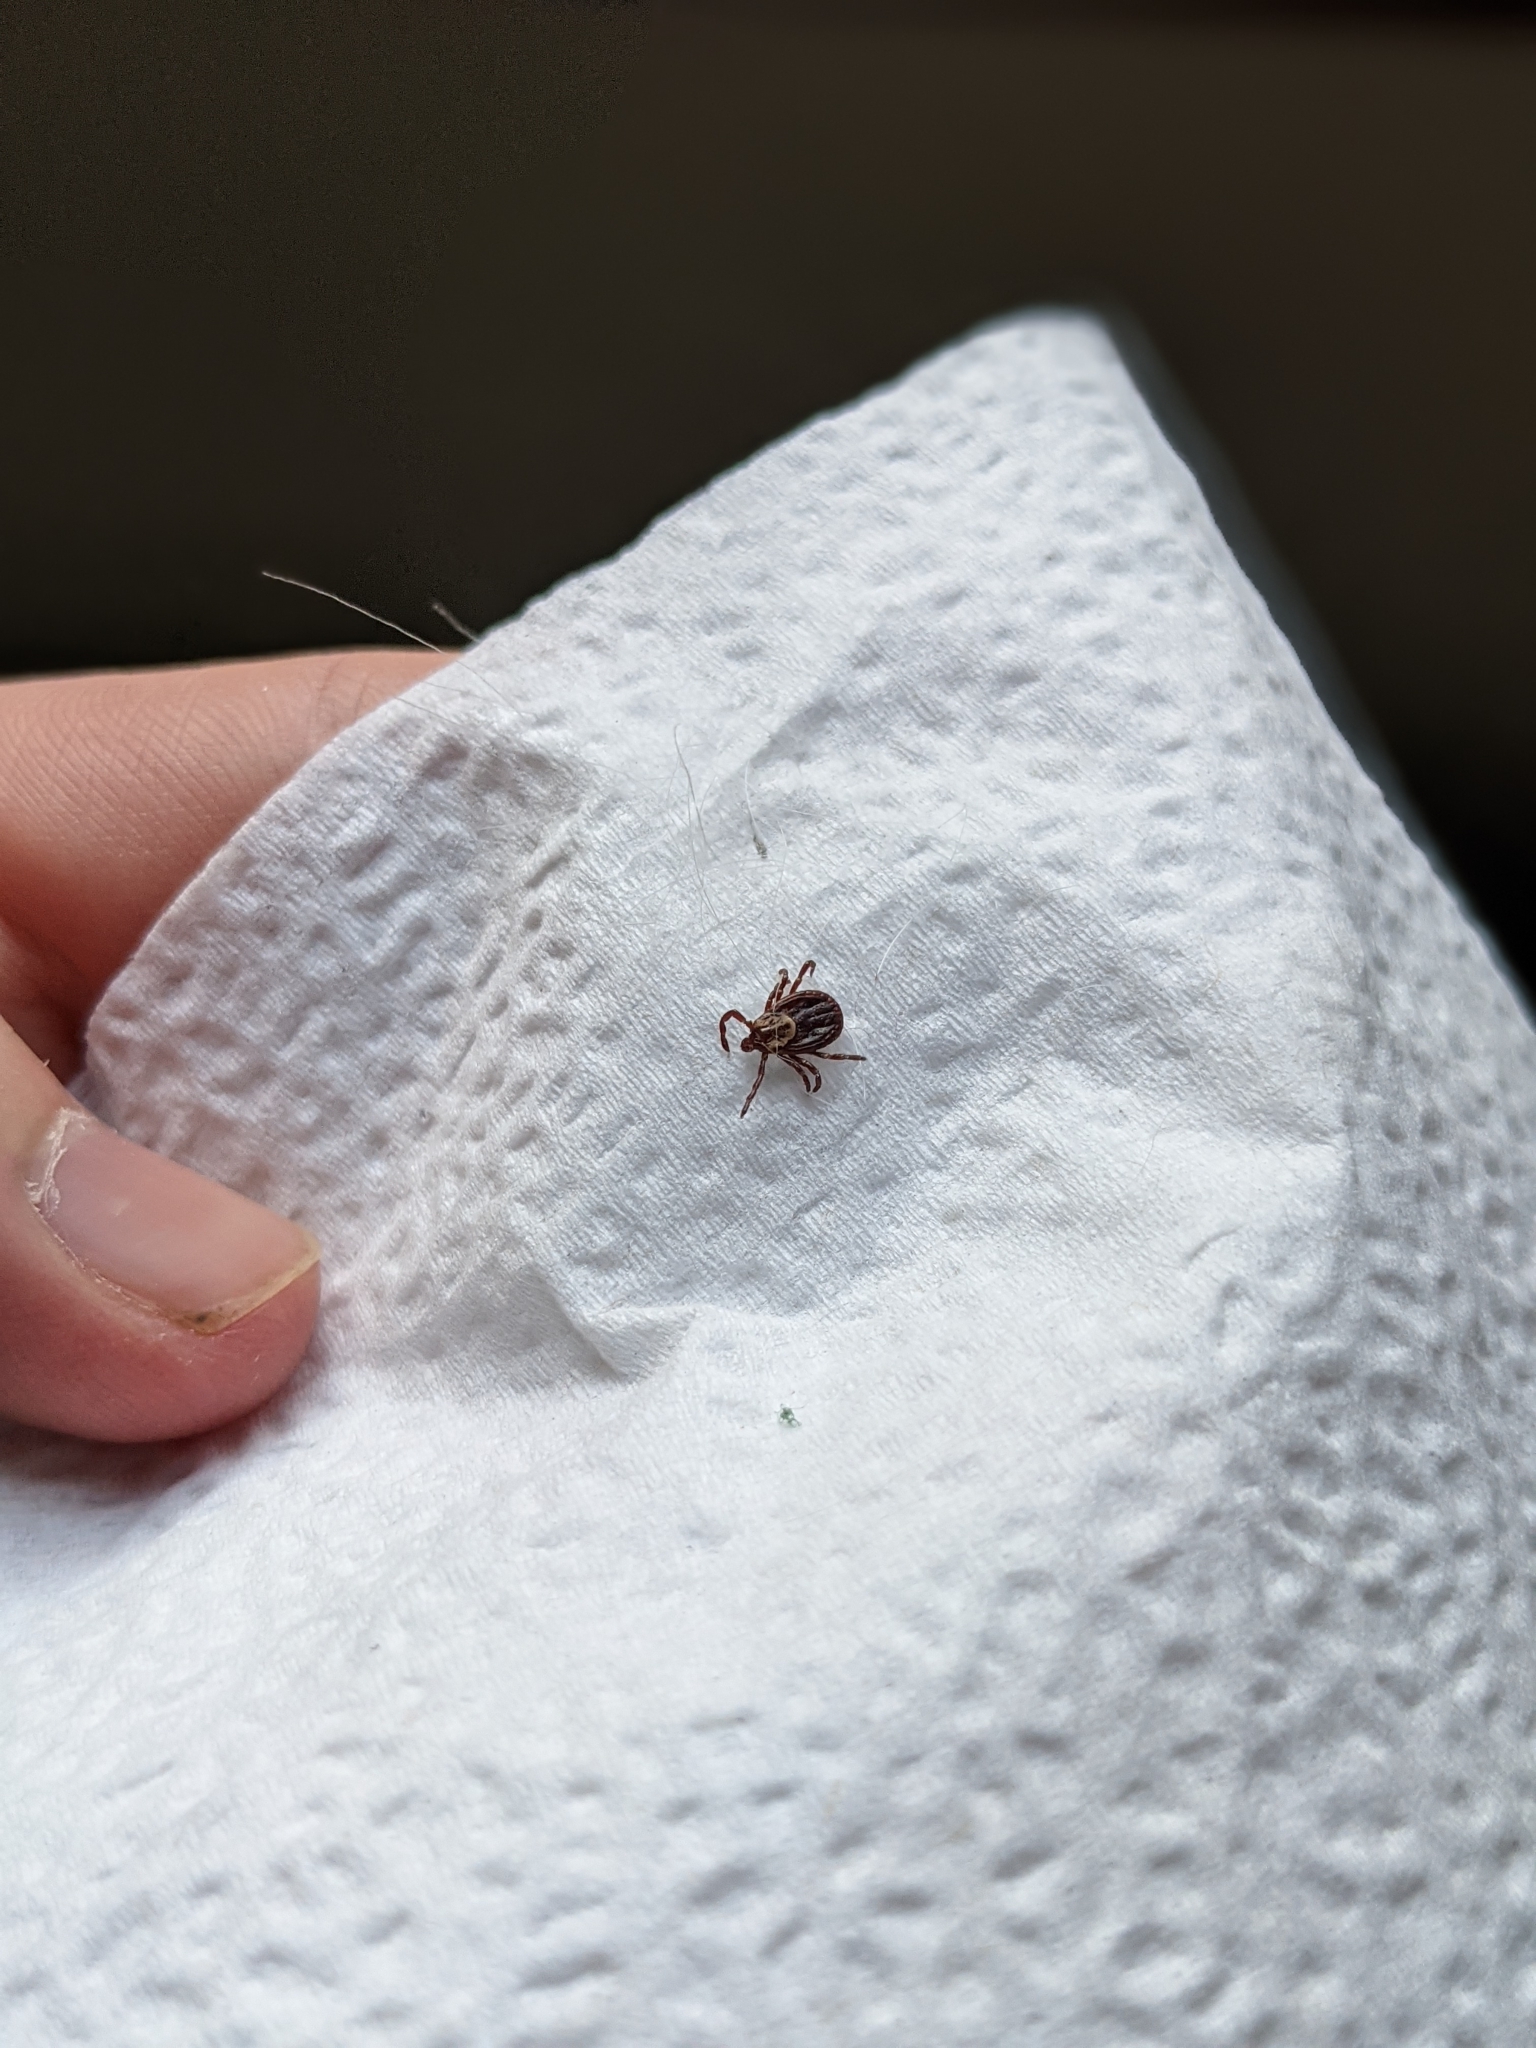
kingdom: Animalia
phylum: Arthropoda
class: Arachnida
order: Ixodida
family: Ixodidae
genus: Dermacentor
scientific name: Dermacentor variabilis
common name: American dog tick
